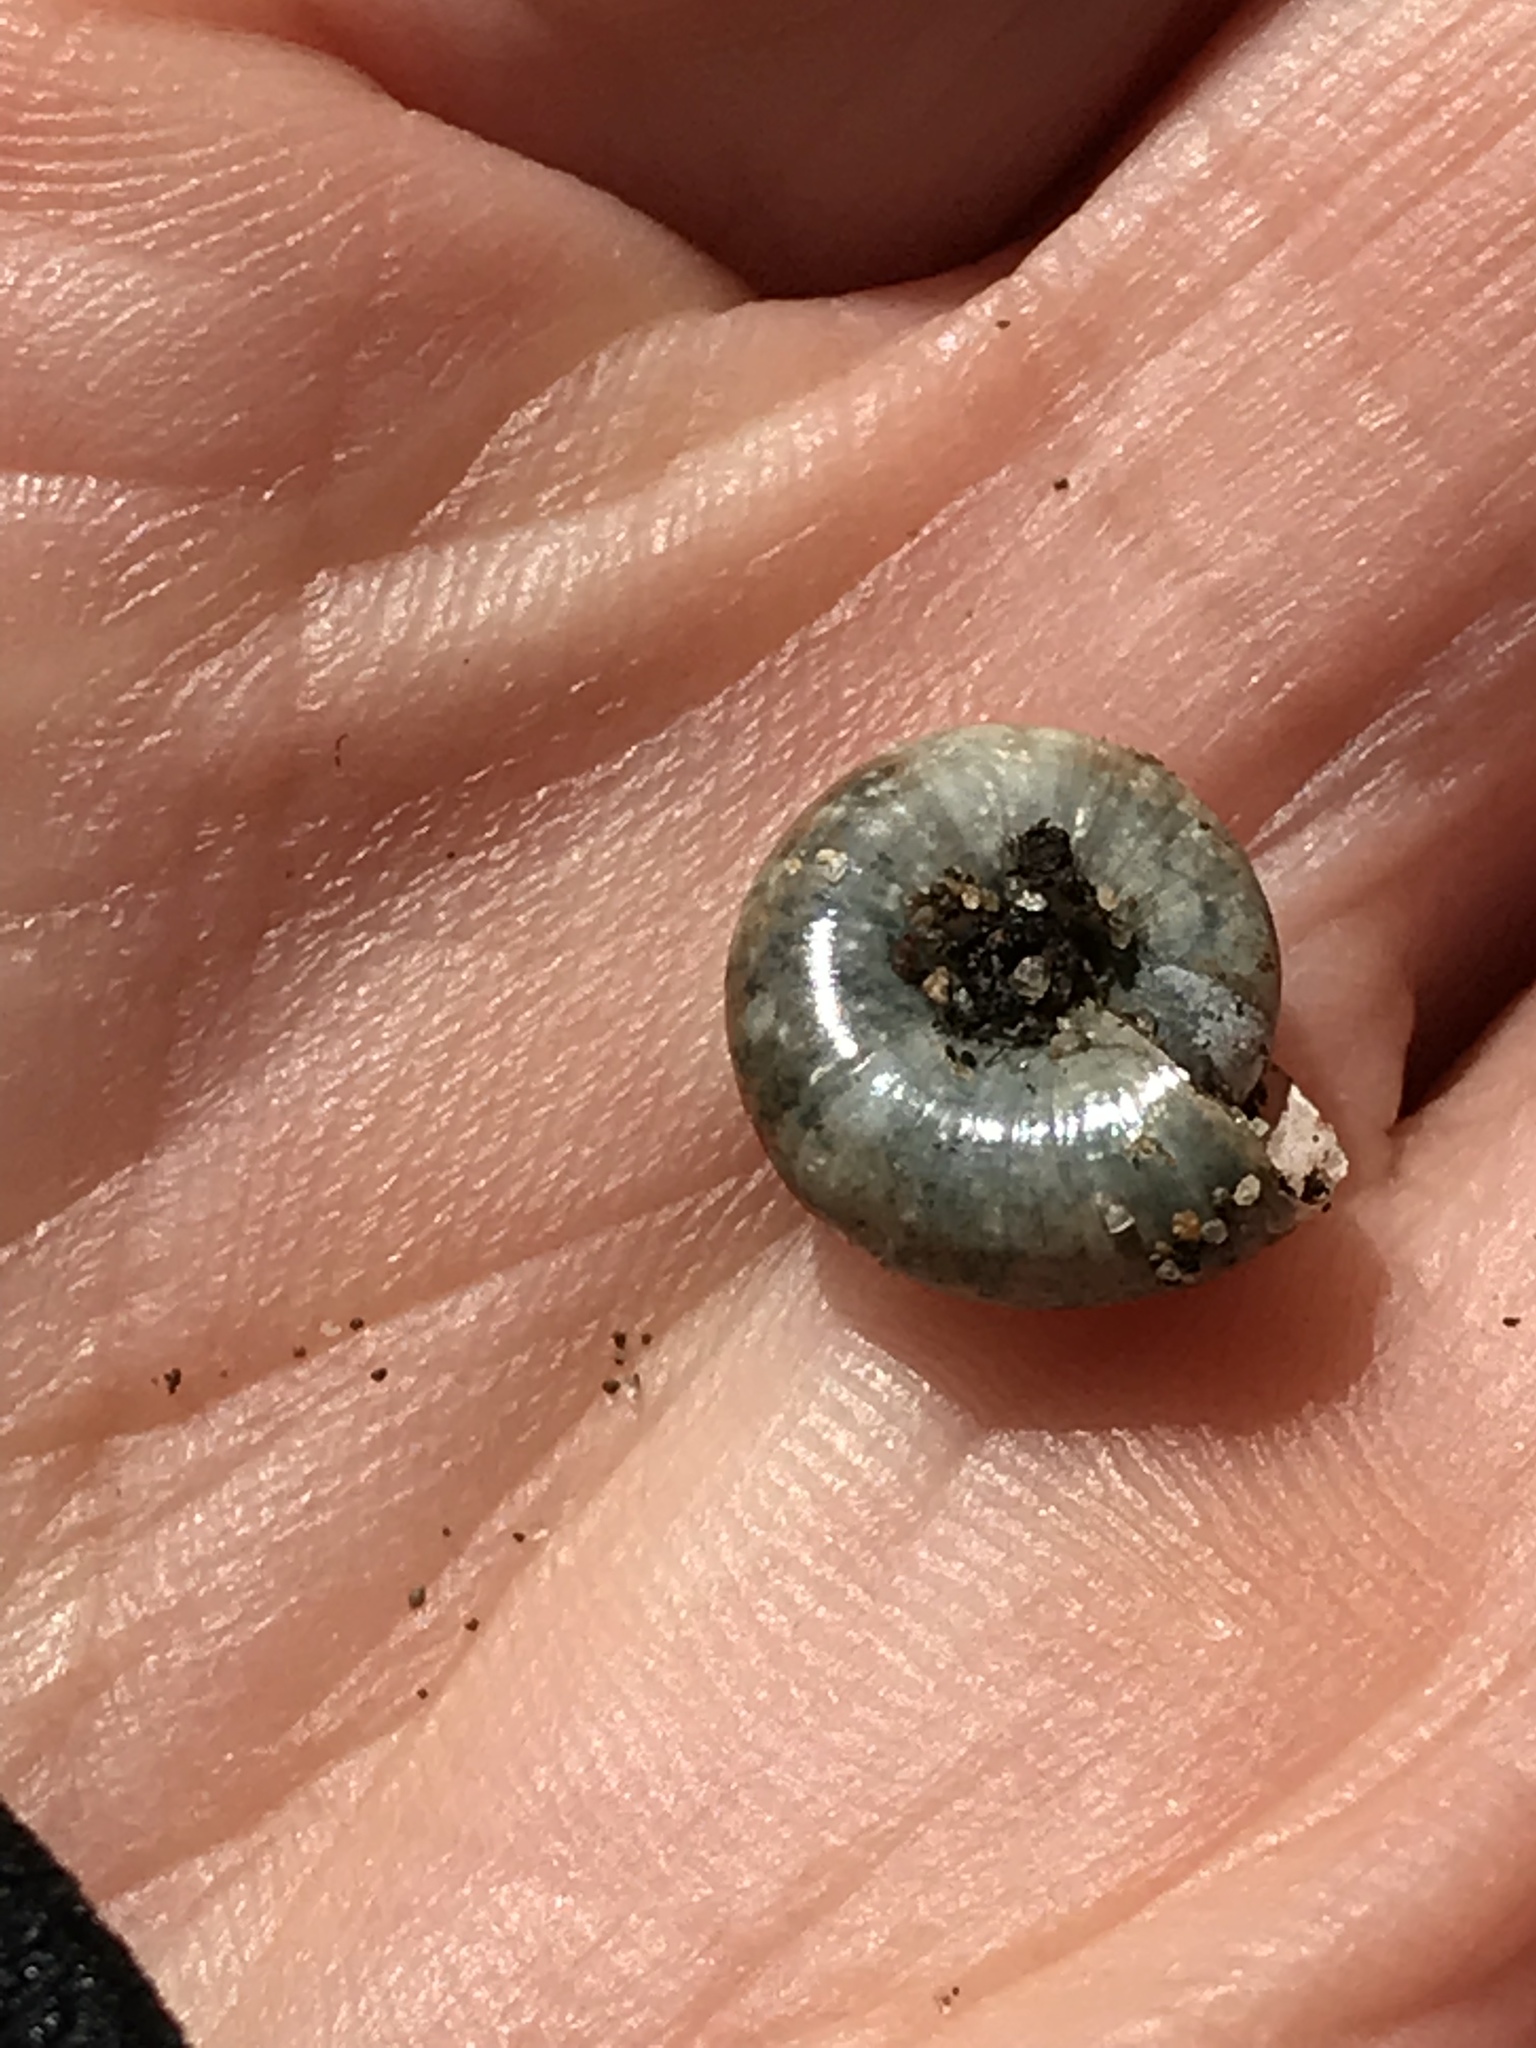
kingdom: Animalia
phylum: Mollusca
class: Gastropoda
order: Stylommatophora
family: Oxychilidae
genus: Oxychilus
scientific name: Oxychilus draparnaudi
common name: Draparnaud's glass snail
